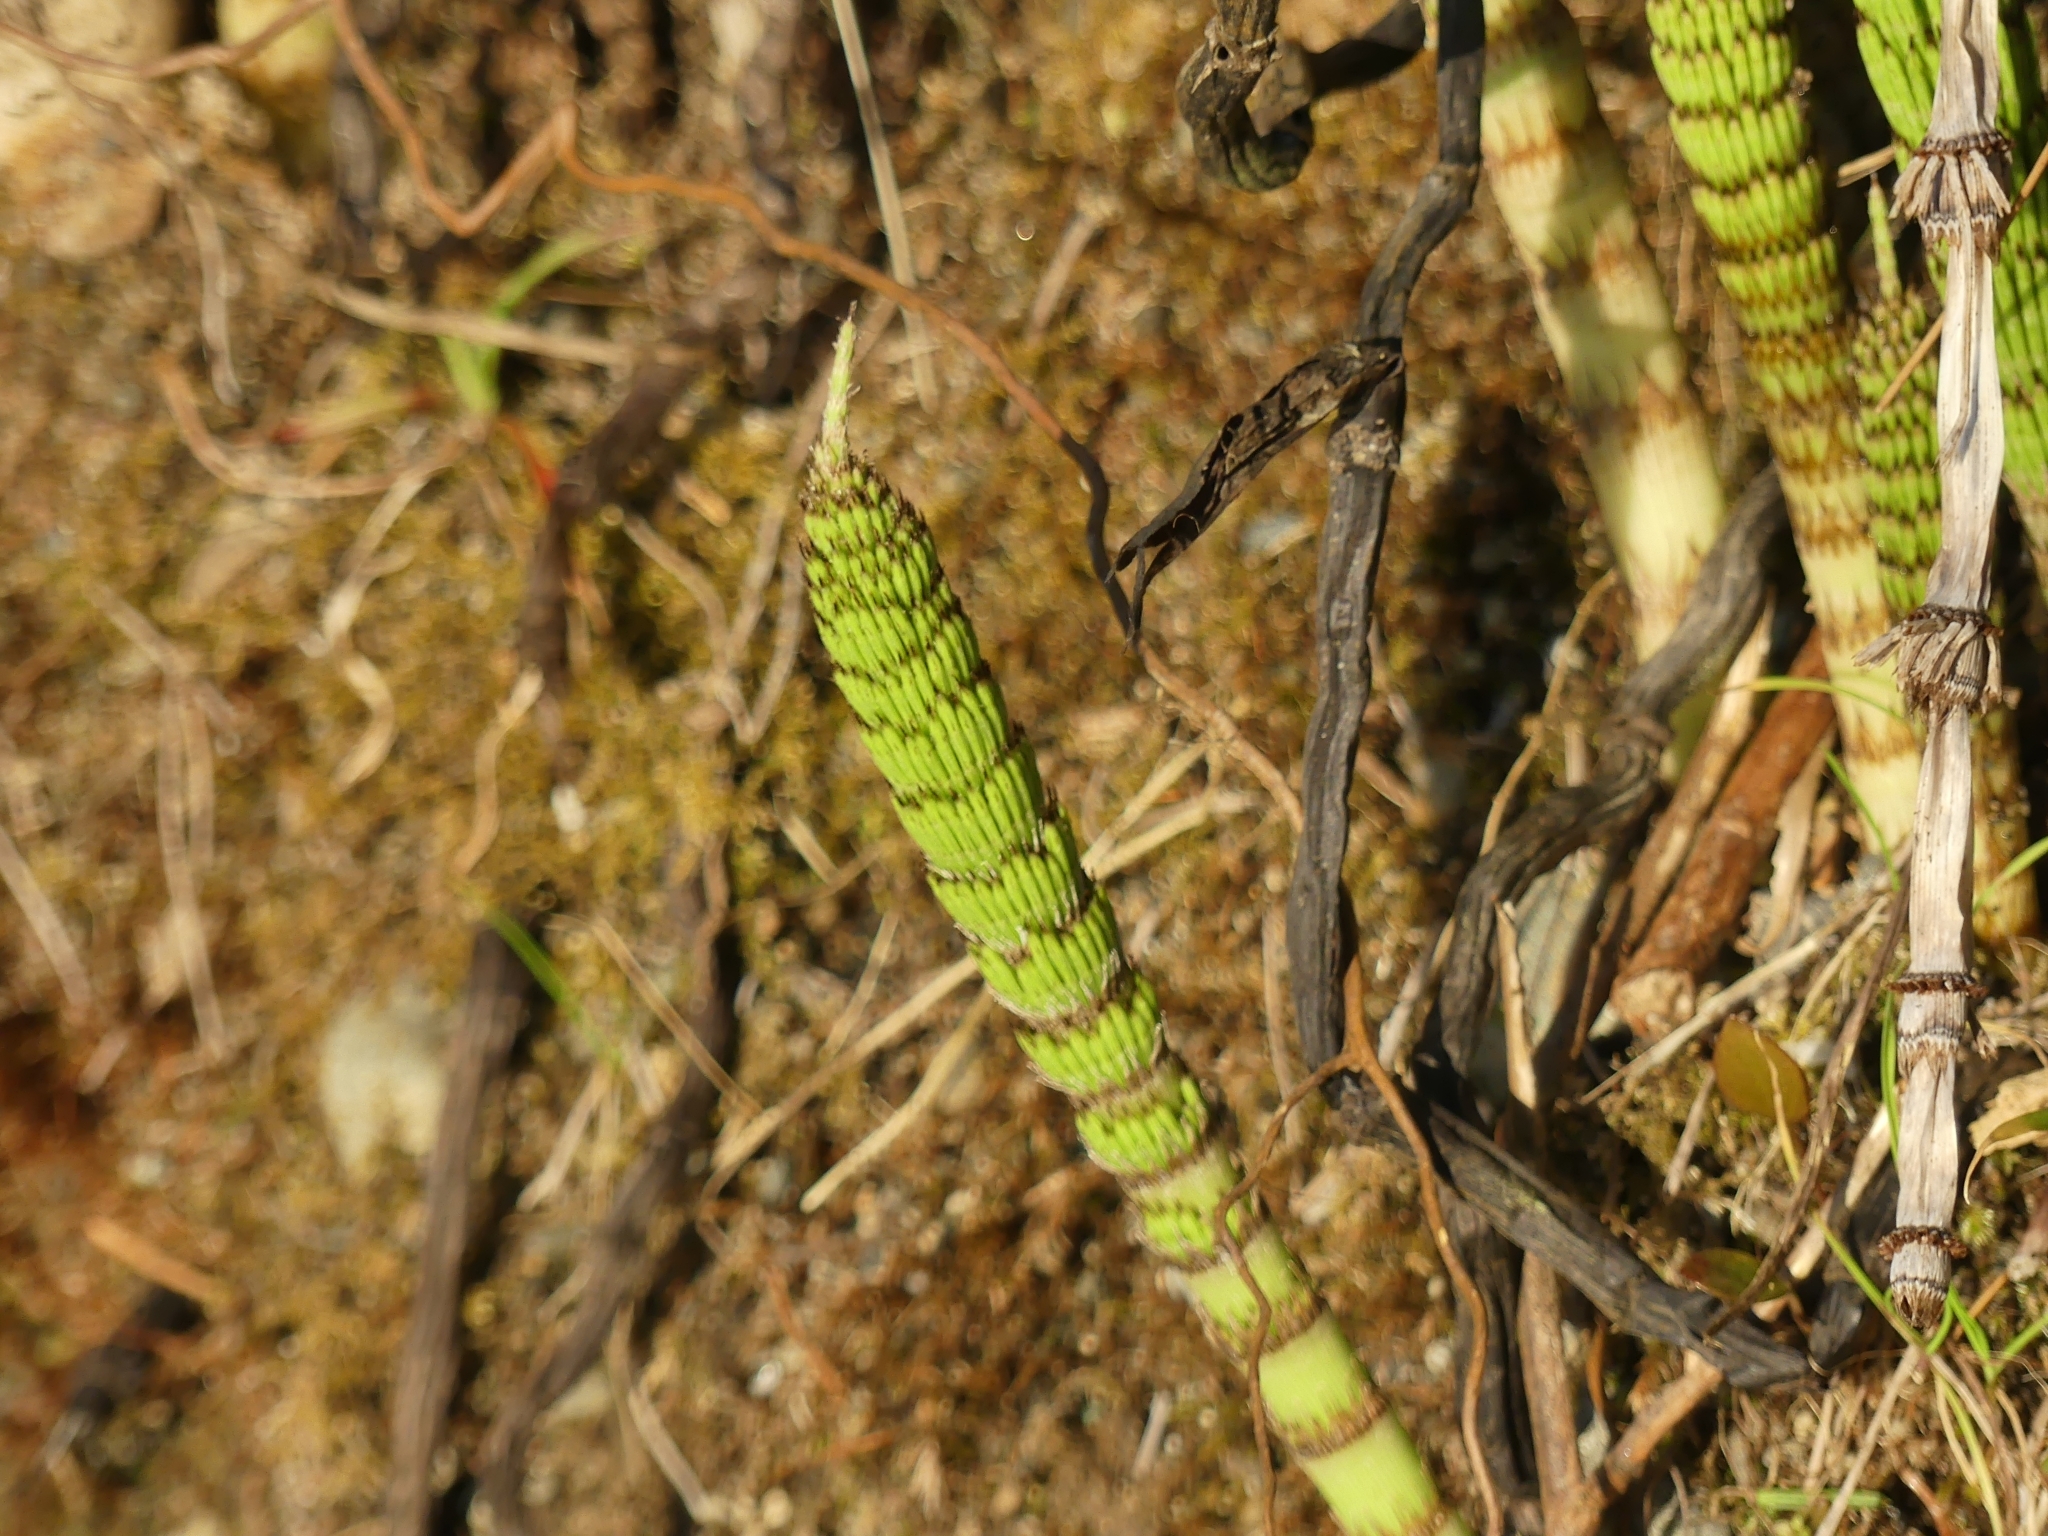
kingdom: Plantae
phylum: Tracheophyta
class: Polypodiopsida
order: Equisetales
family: Equisetaceae
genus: Equisetum
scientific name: Equisetum telmateia
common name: Great horsetail
